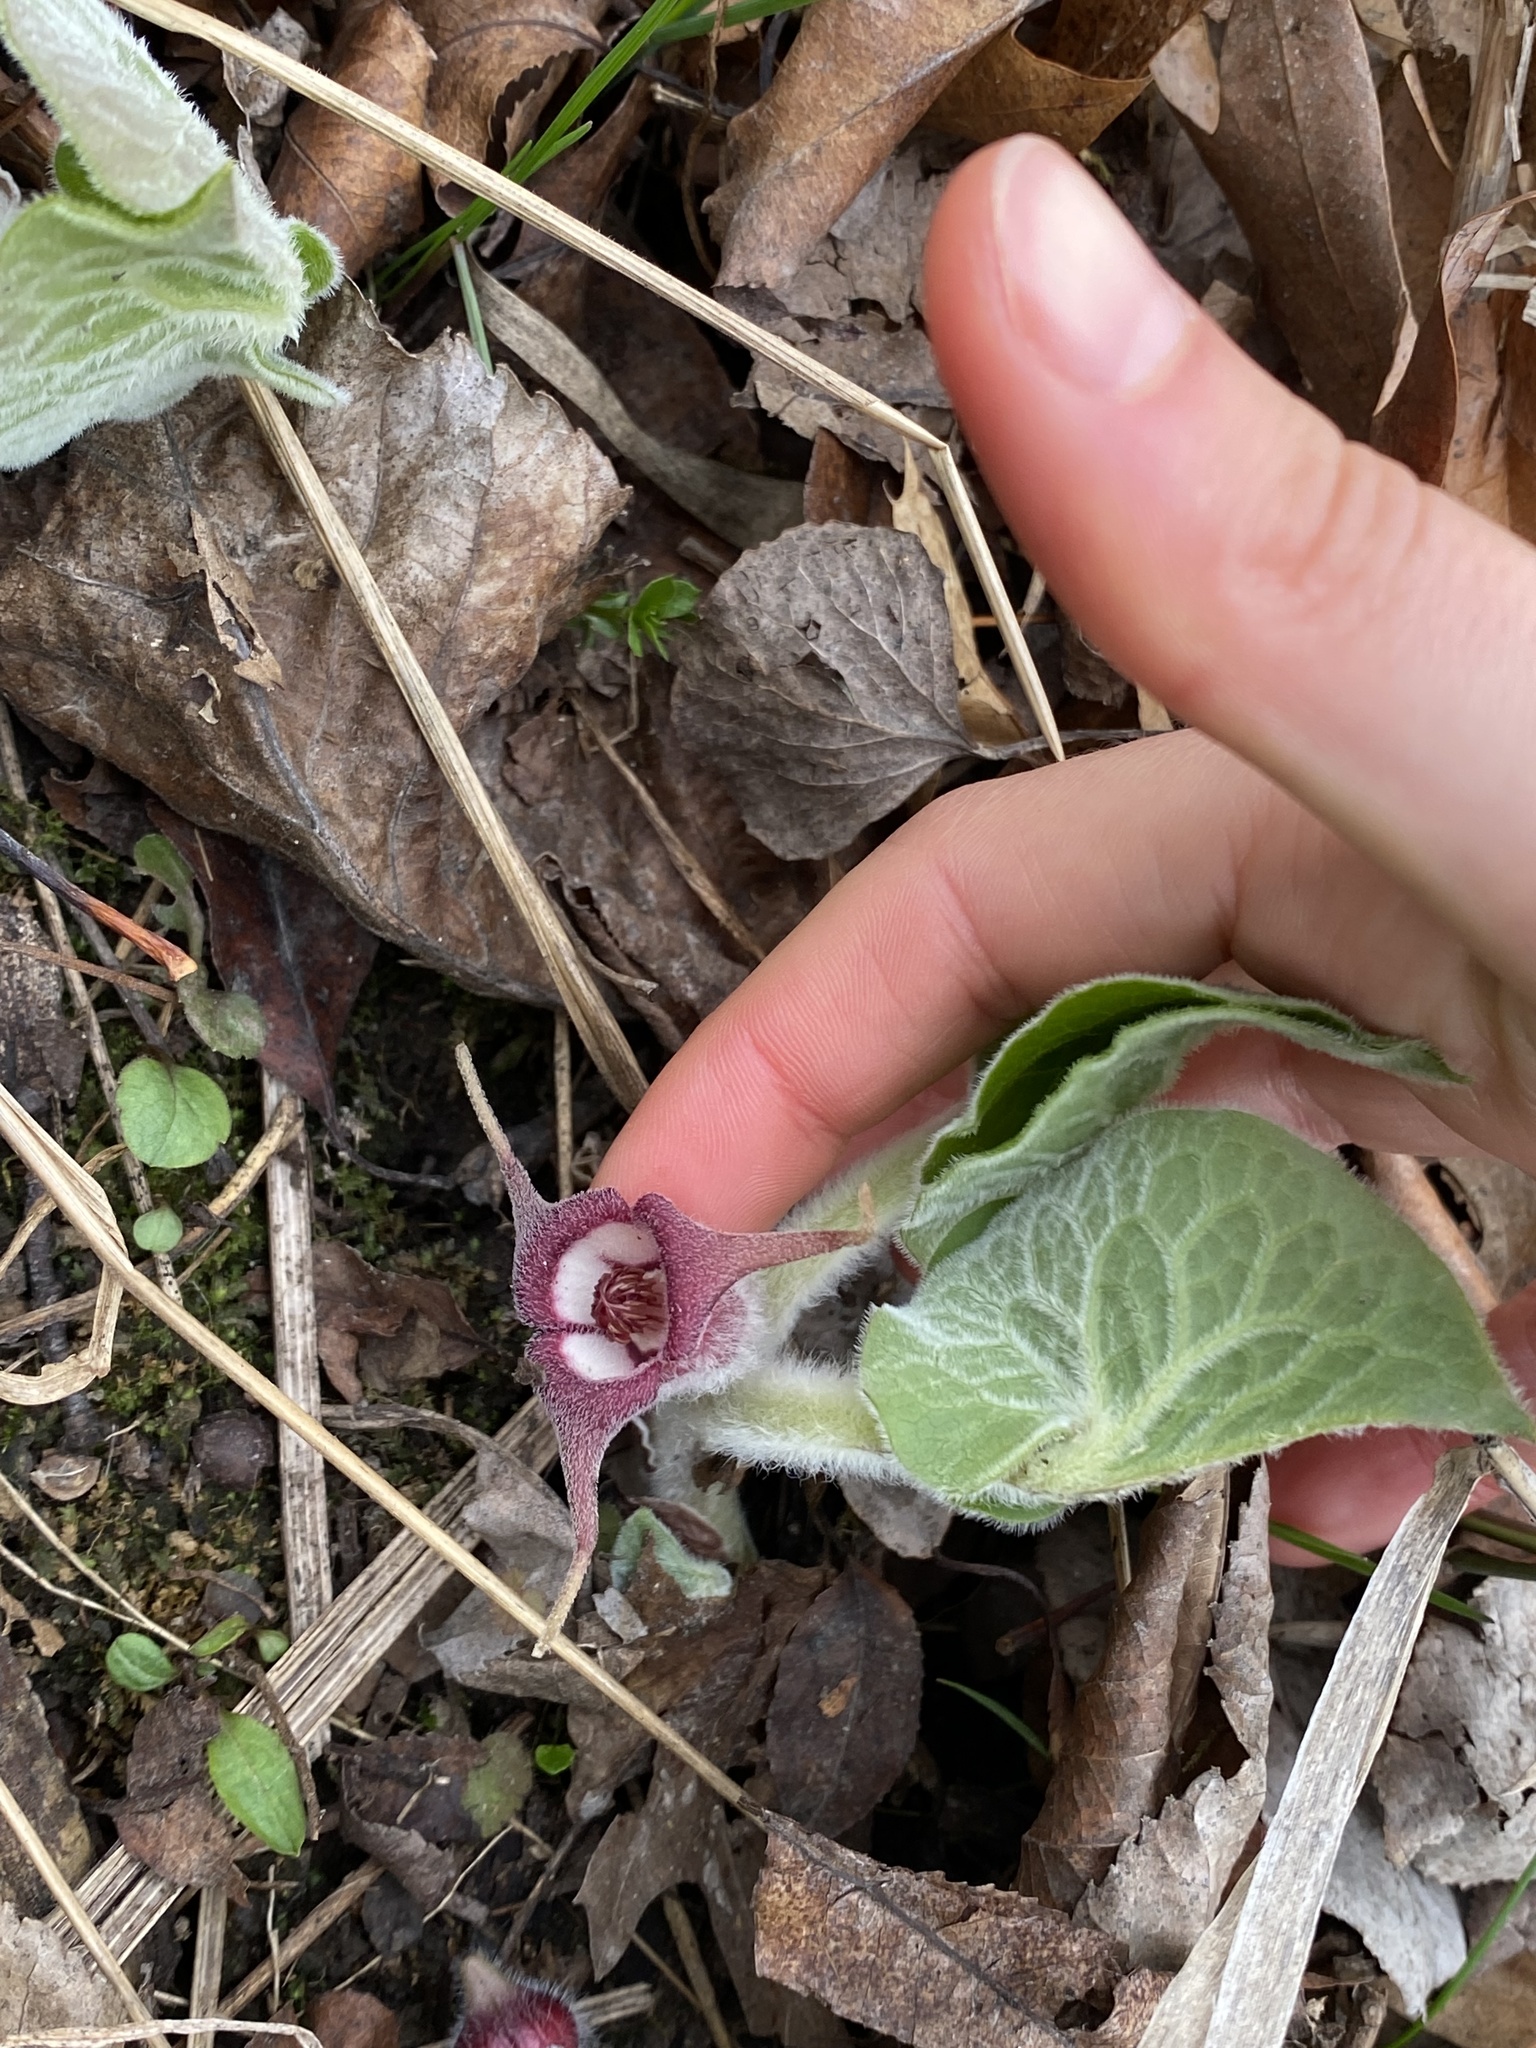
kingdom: Plantae
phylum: Tracheophyta
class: Magnoliopsida
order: Piperales
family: Aristolochiaceae
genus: Asarum
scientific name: Asarum canadense
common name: Wild ginger
